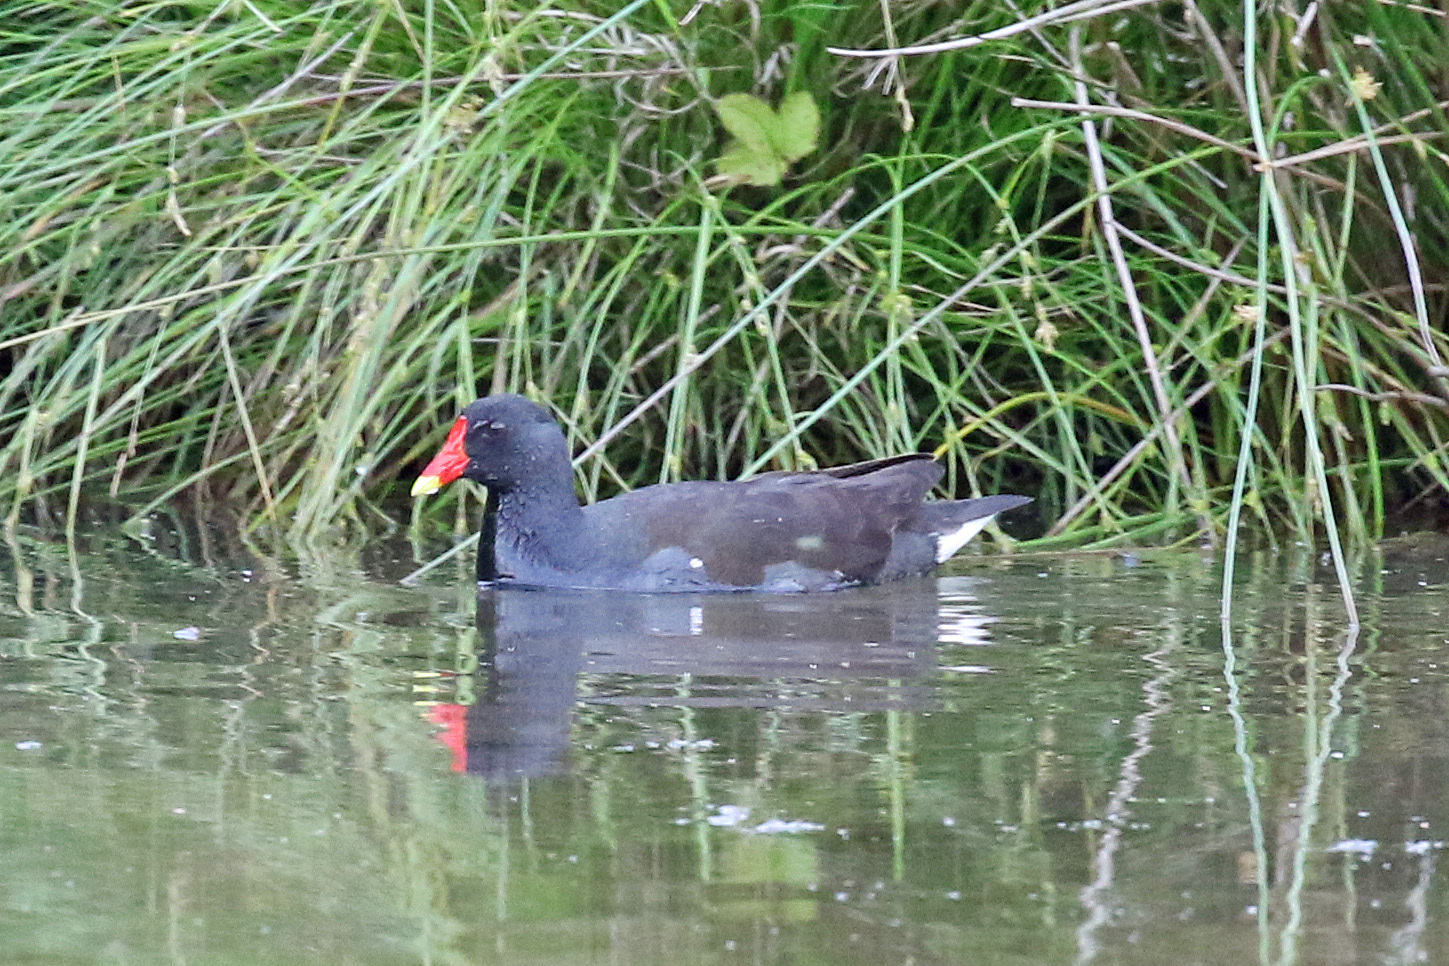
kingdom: Animalia
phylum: Chordata
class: Aves
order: Gruiformes
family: Rallidae
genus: Gallinula
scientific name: Gallinula chloropus
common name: Common moorhen
